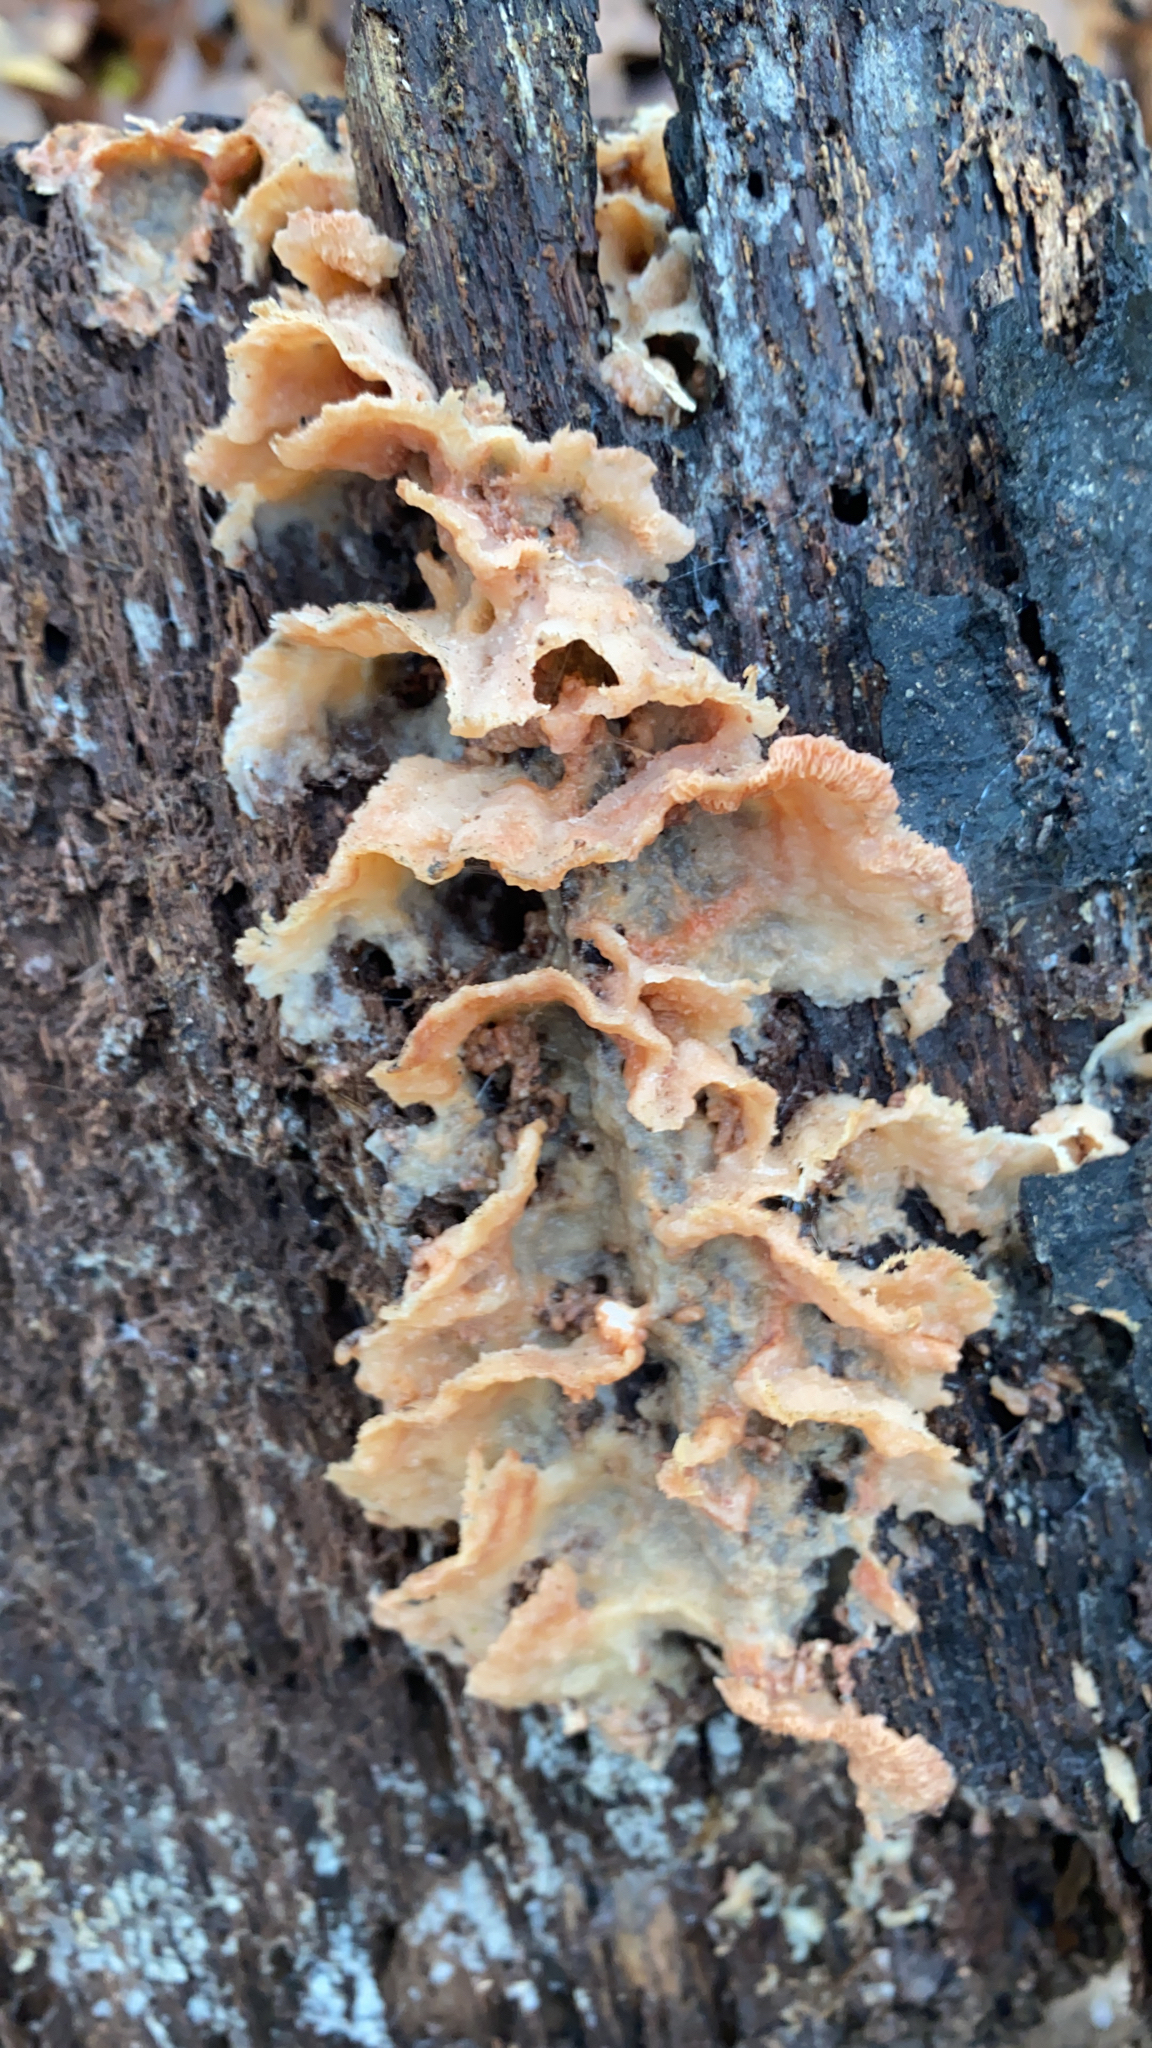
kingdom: Fungi
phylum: Basidiomycota
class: Agaricomycetes
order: Polyporales
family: Meruliaceae
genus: Phlebia
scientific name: Phlebia tremellosa
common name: Jelly rot
